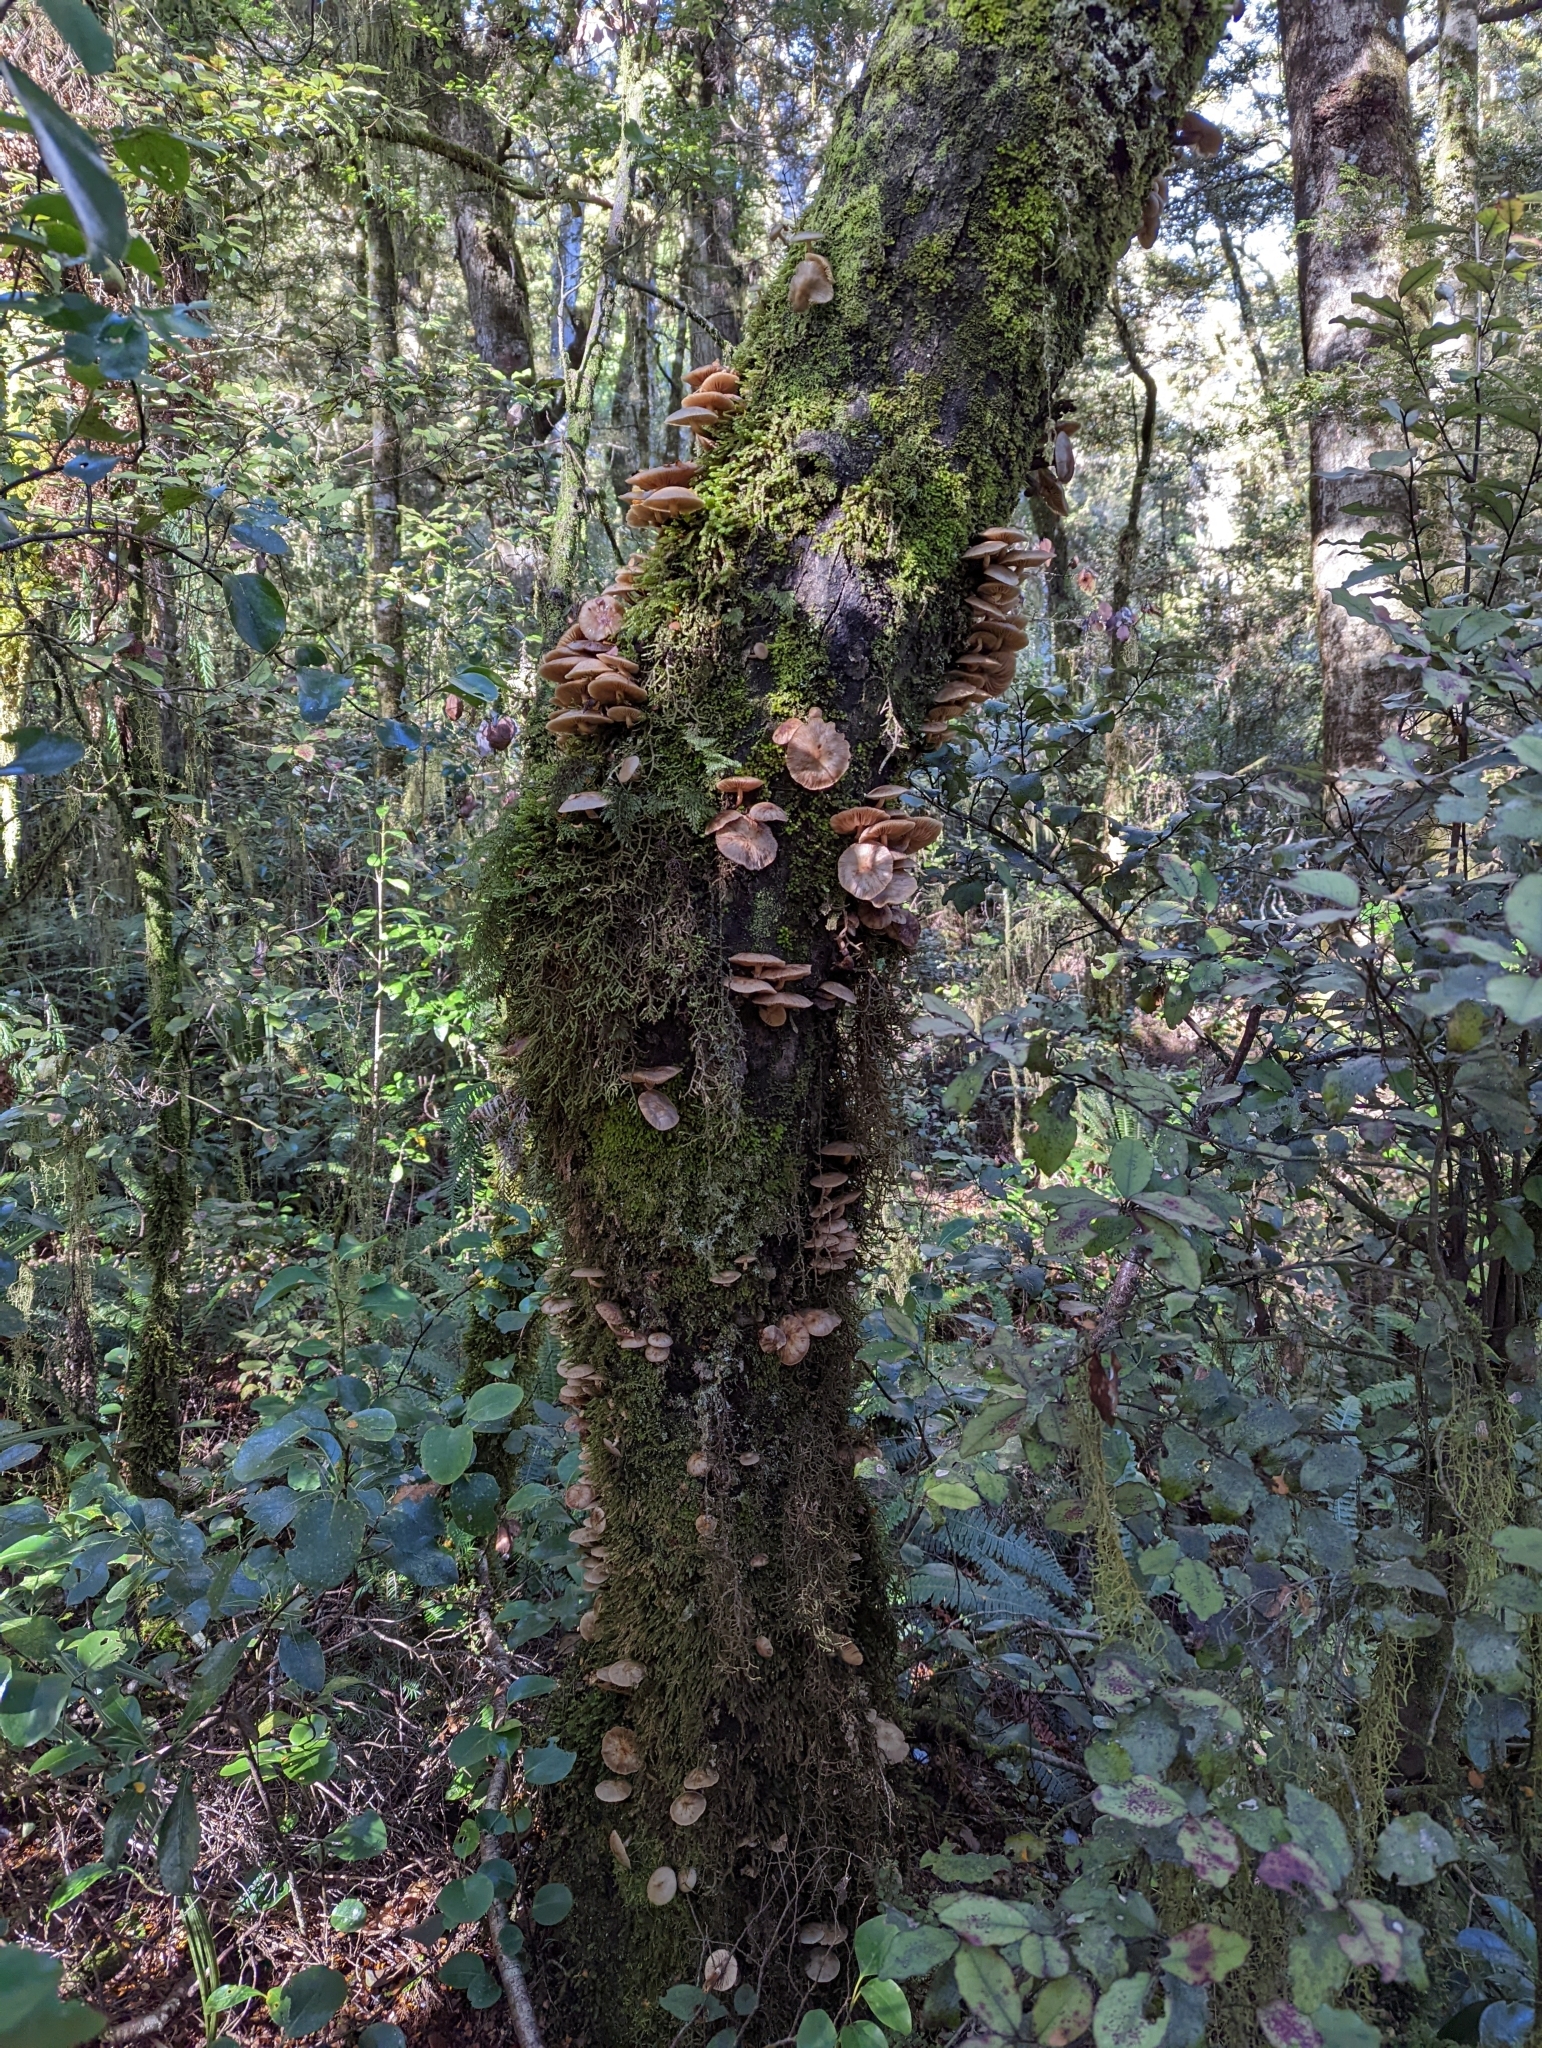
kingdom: Fungi
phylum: Basidiomycota
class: Agaricomycetes
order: Agaricales
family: Physalacriaceae
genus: Armillaria
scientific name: Armillaria novae-zelandiae
